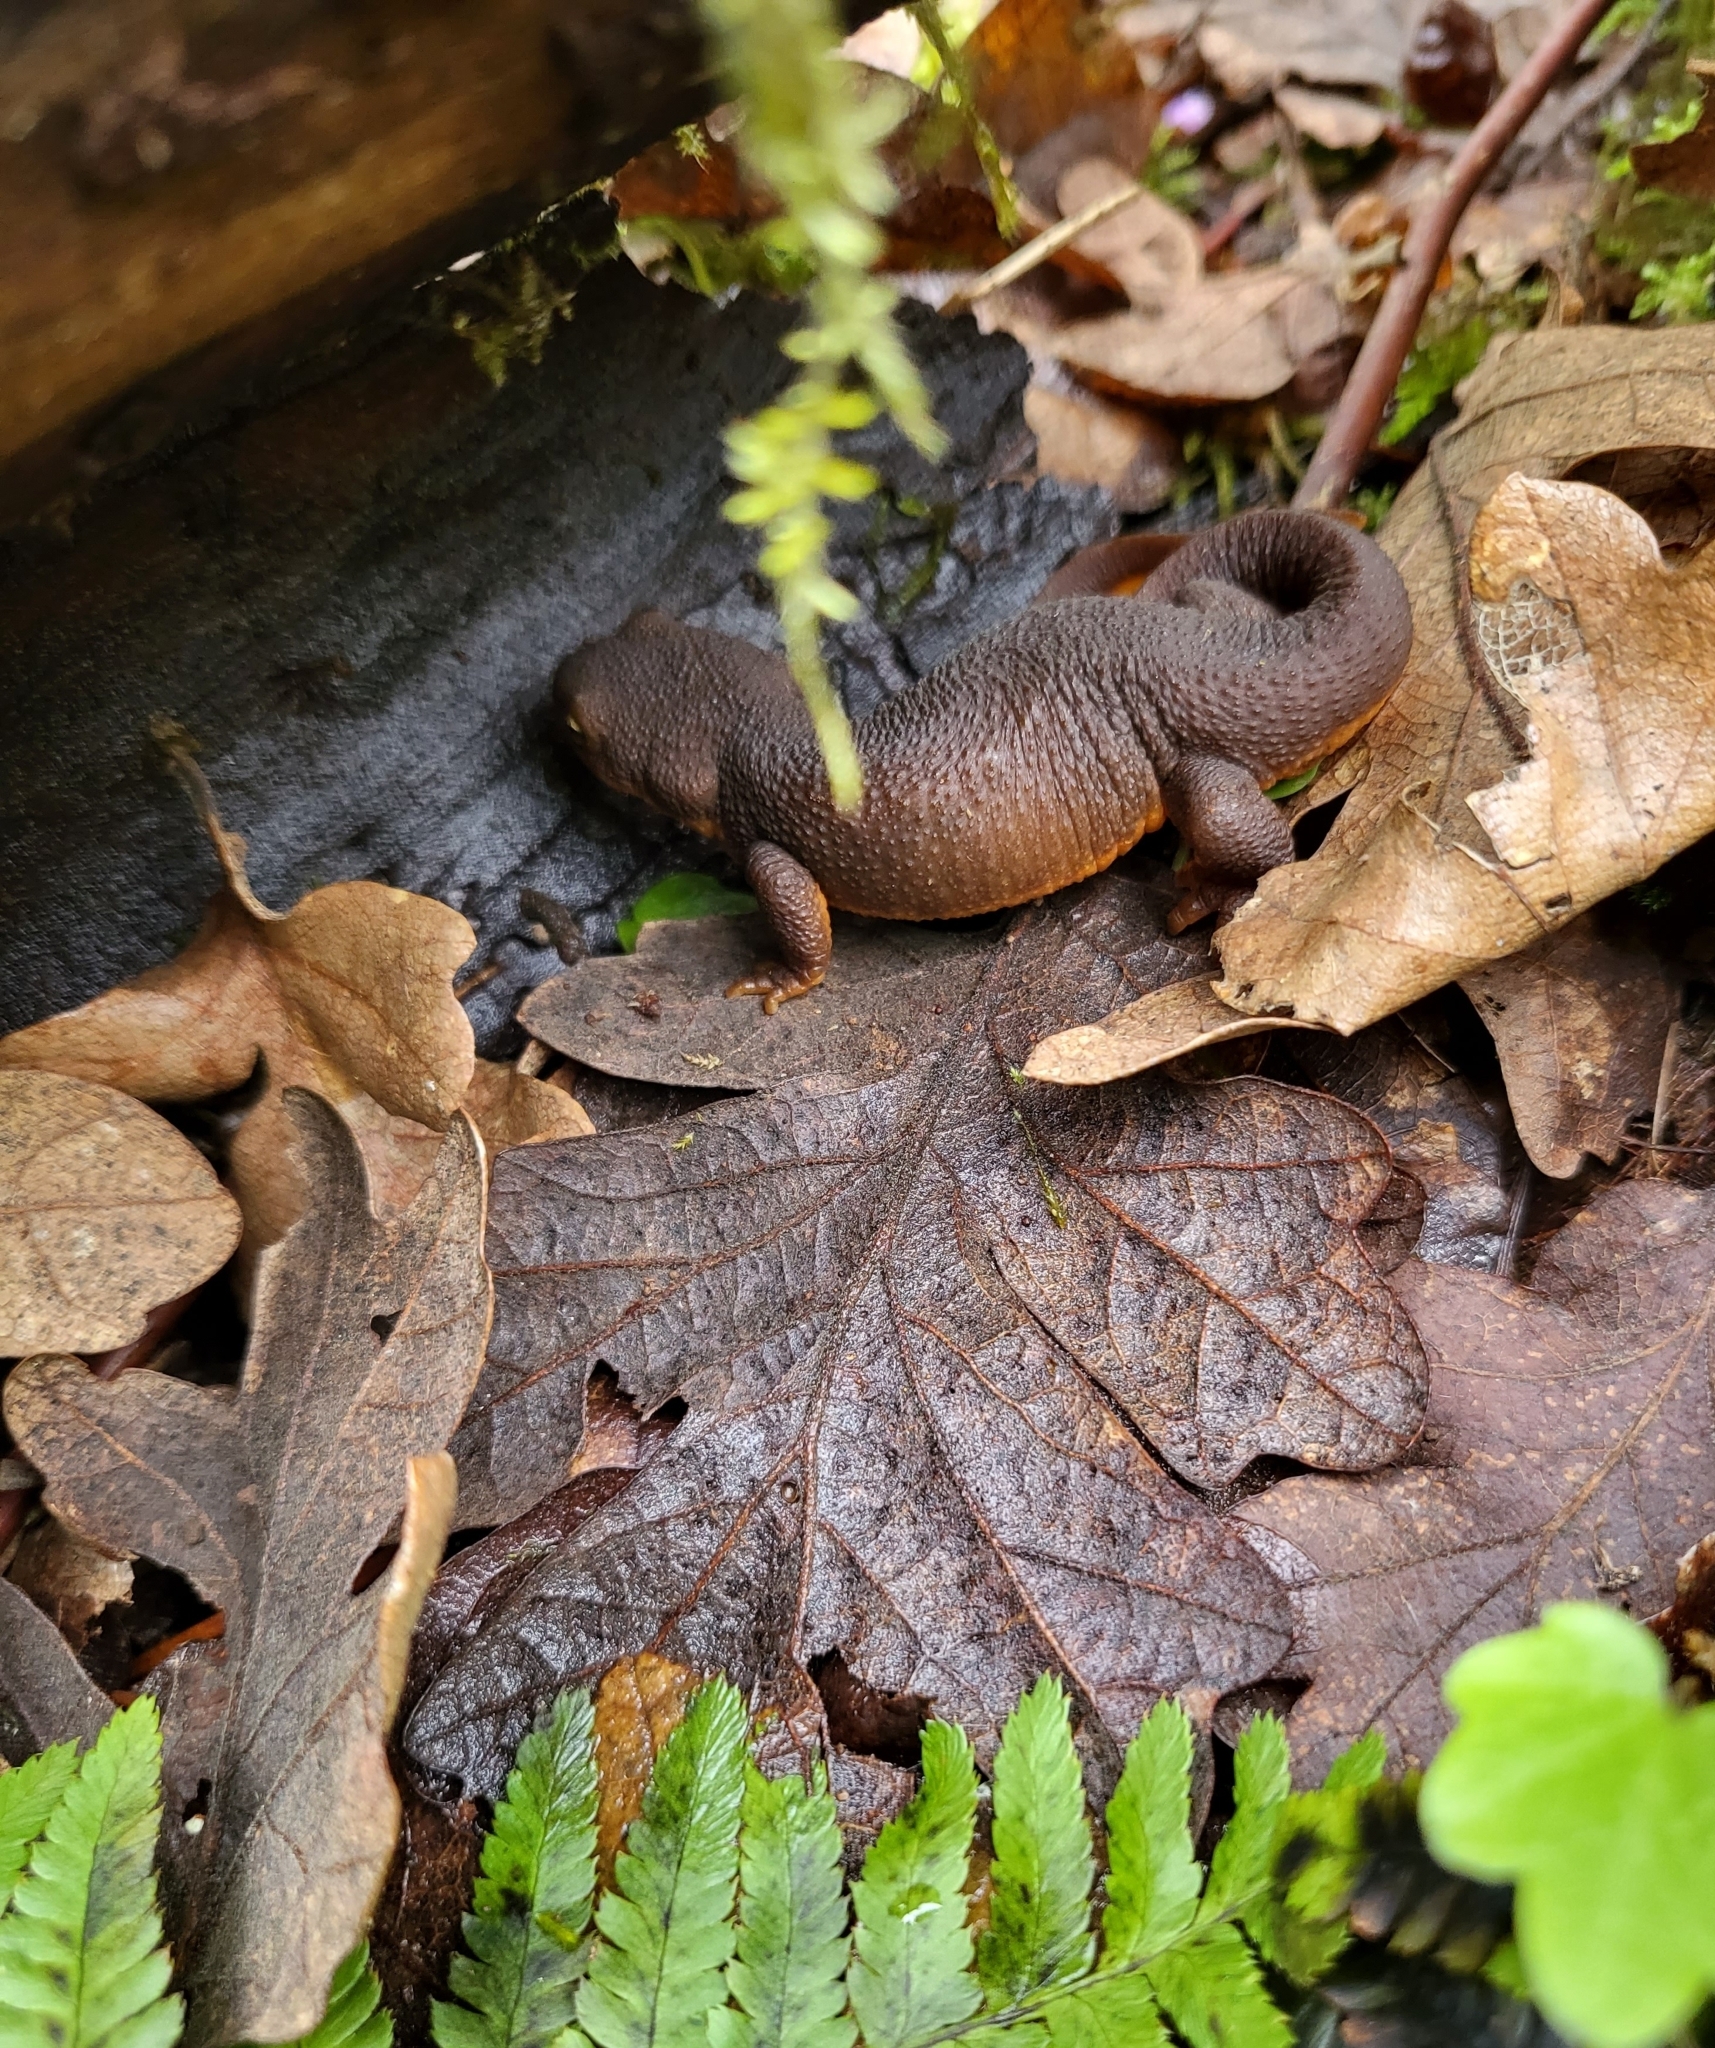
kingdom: Animalia
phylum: Chordata
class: Amphibia
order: Caudata
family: Salamandridae
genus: Taricha
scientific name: Taricha granulosa
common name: Roughskin newt
